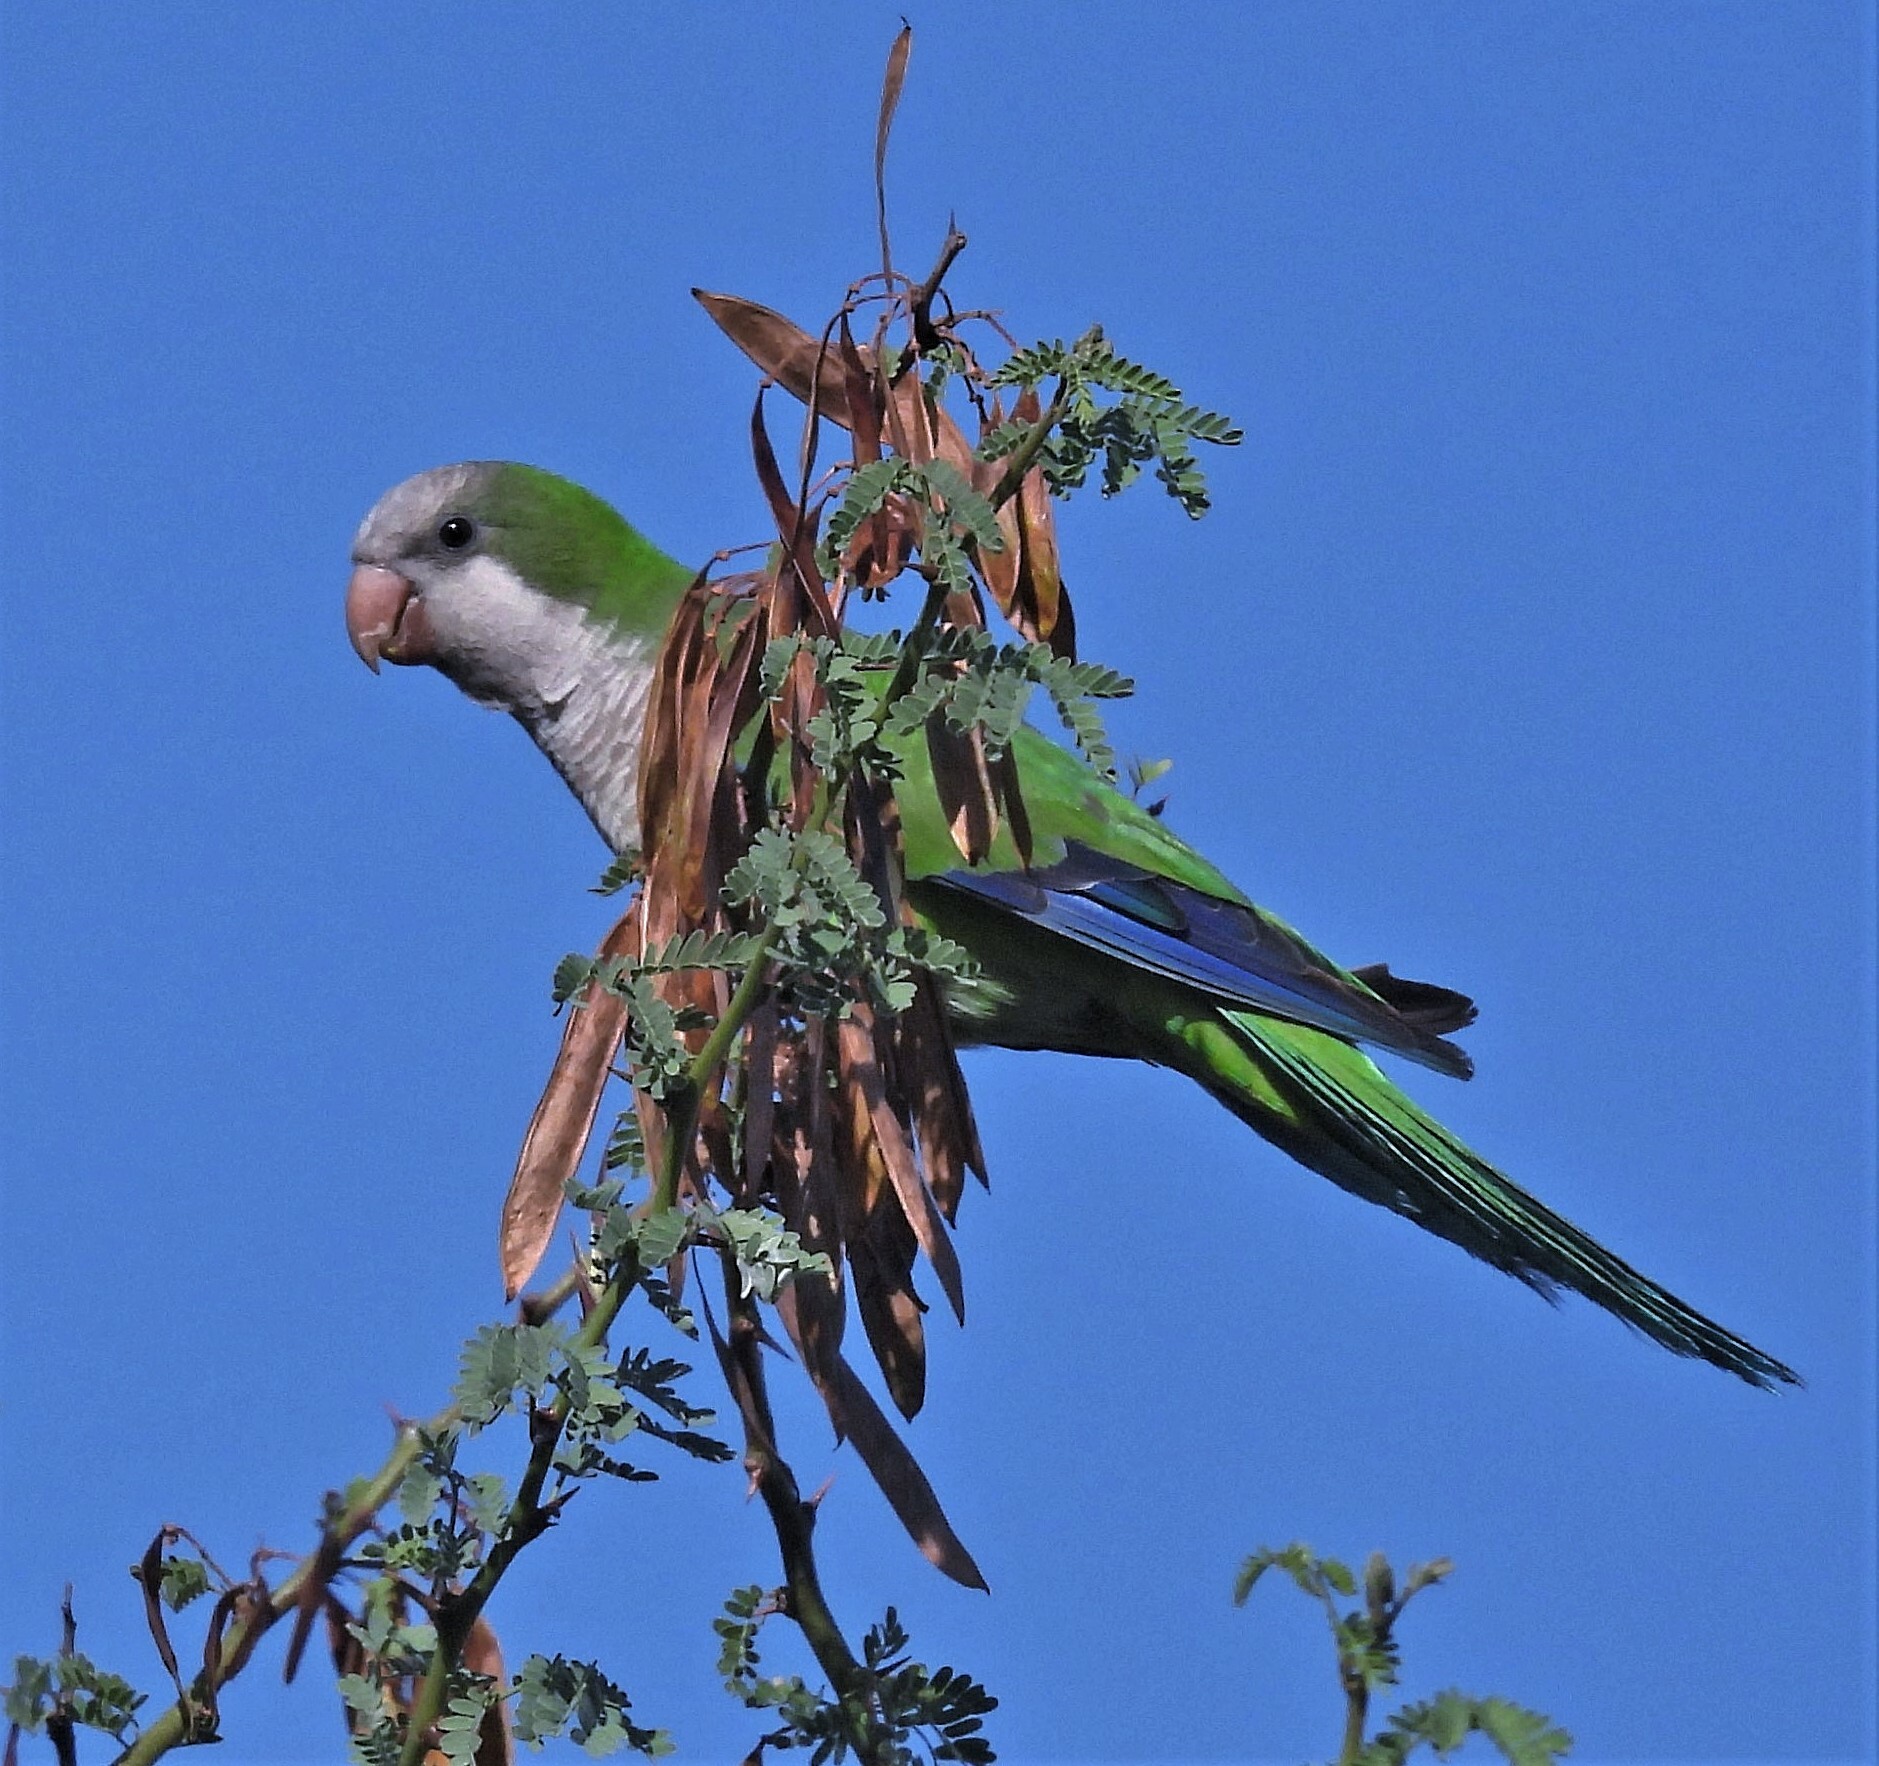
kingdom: Animalia
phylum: Chordata
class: Aves
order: Psittaciformes
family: Psittacidae
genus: Myiopsitta
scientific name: Myiopsitta monachus
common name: Monk parakeet
